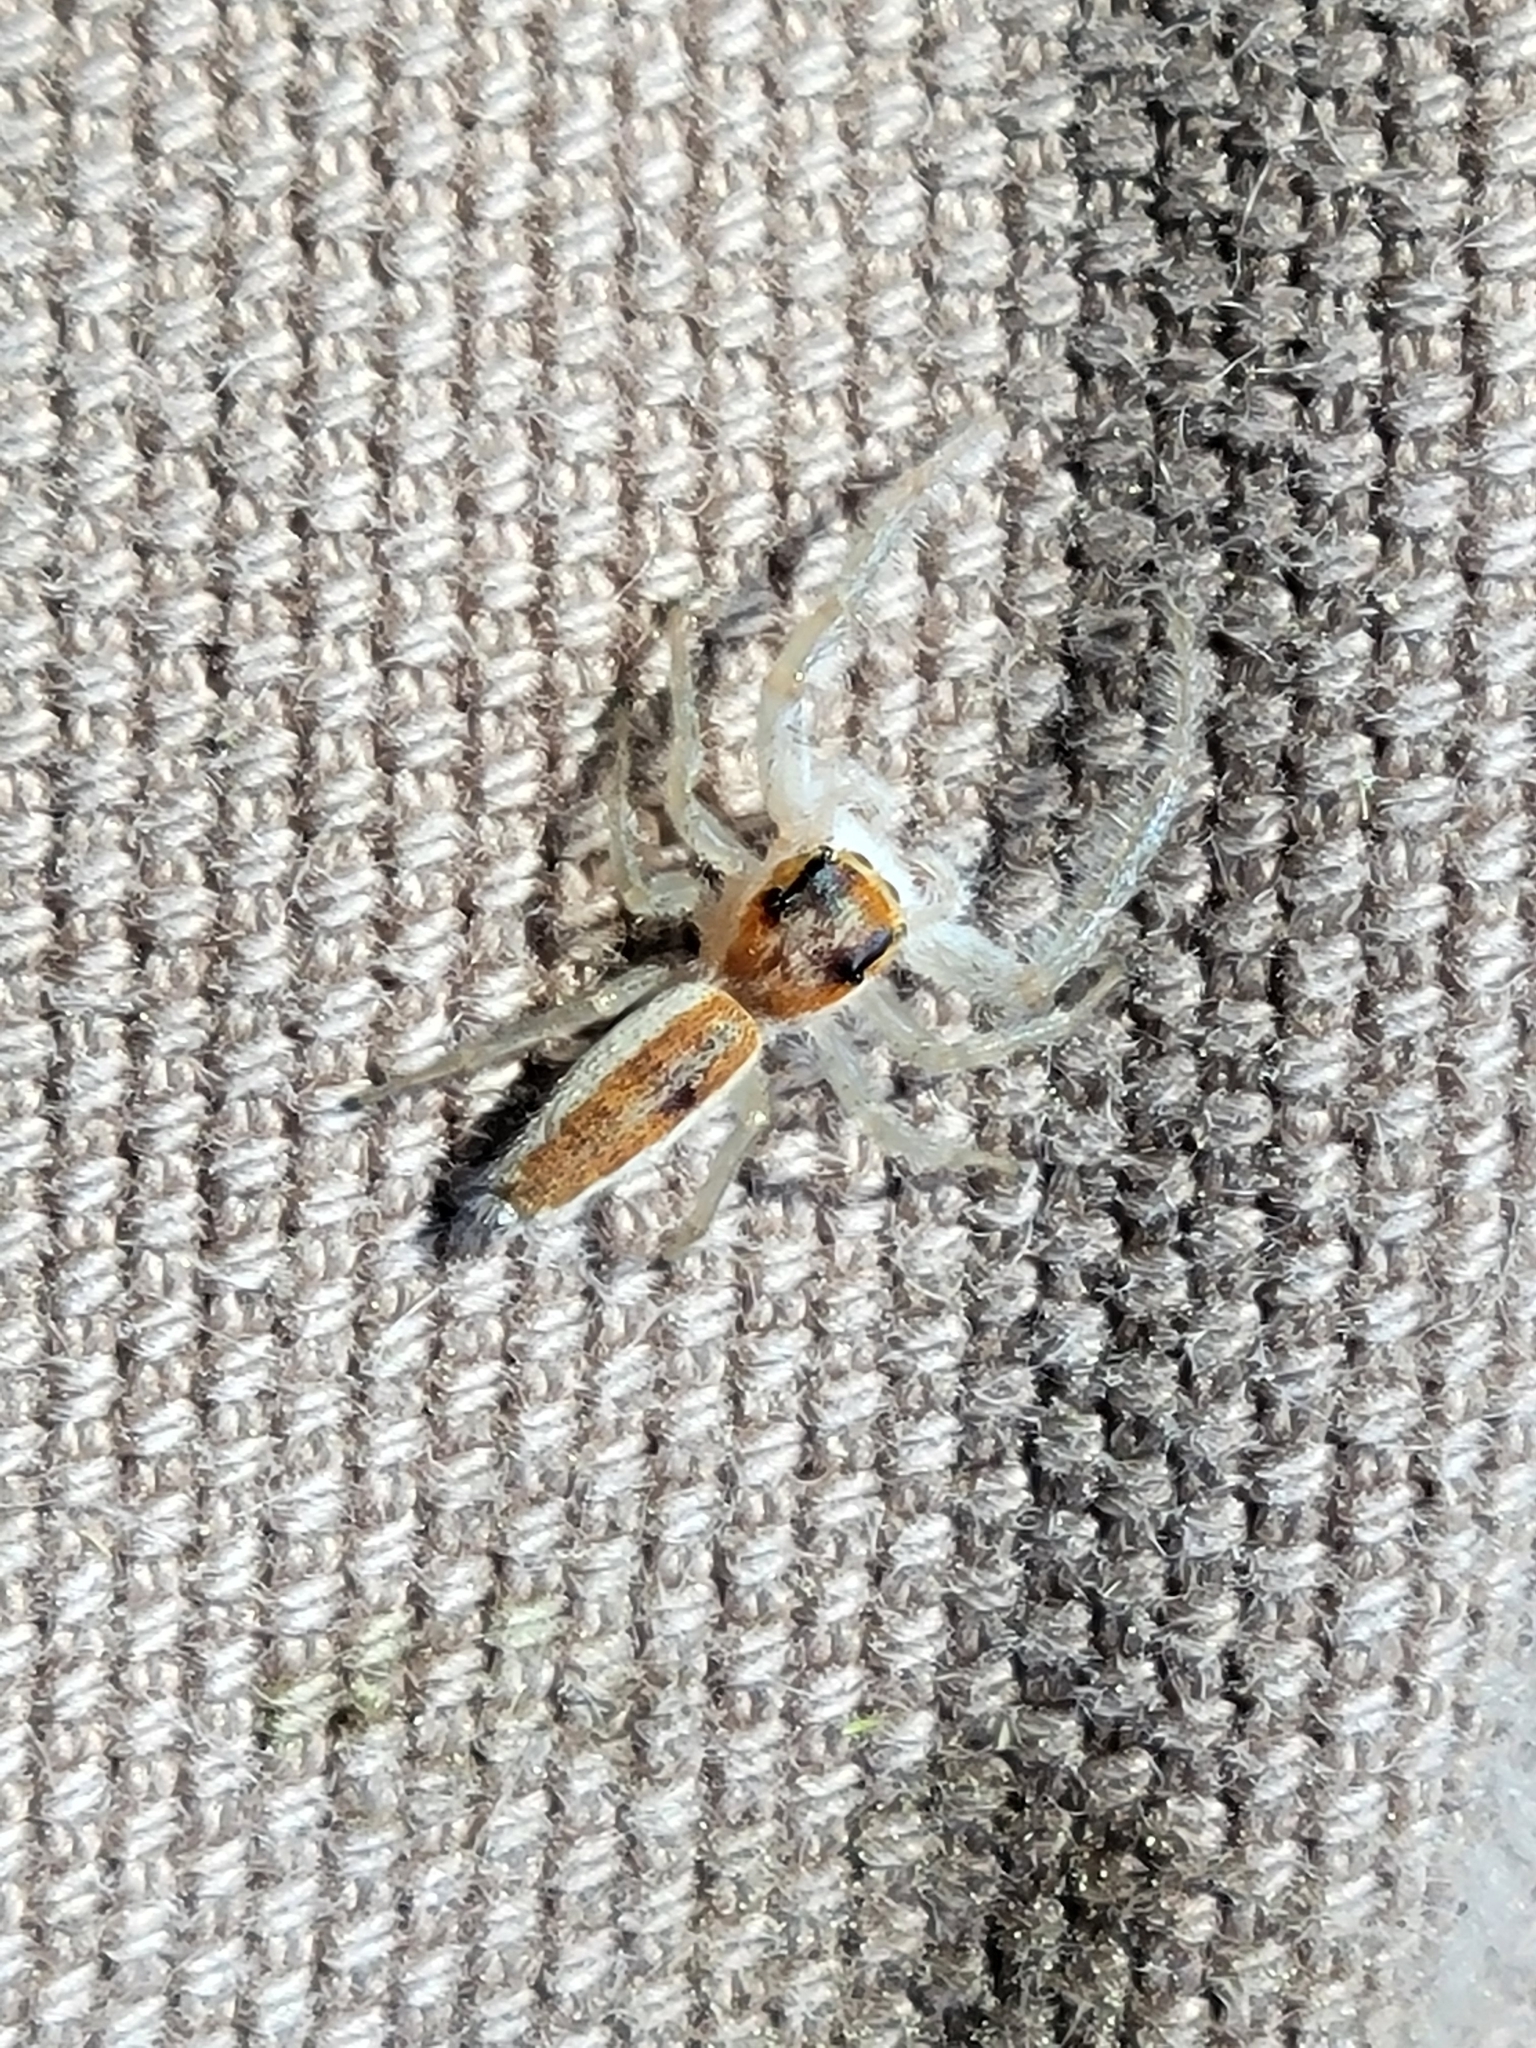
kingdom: Animalia
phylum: Arthropoda
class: Arachnida
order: Araneae
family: Salticidae
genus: Hentzia
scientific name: Hentzia mitrata
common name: White-jawed jumping spider
